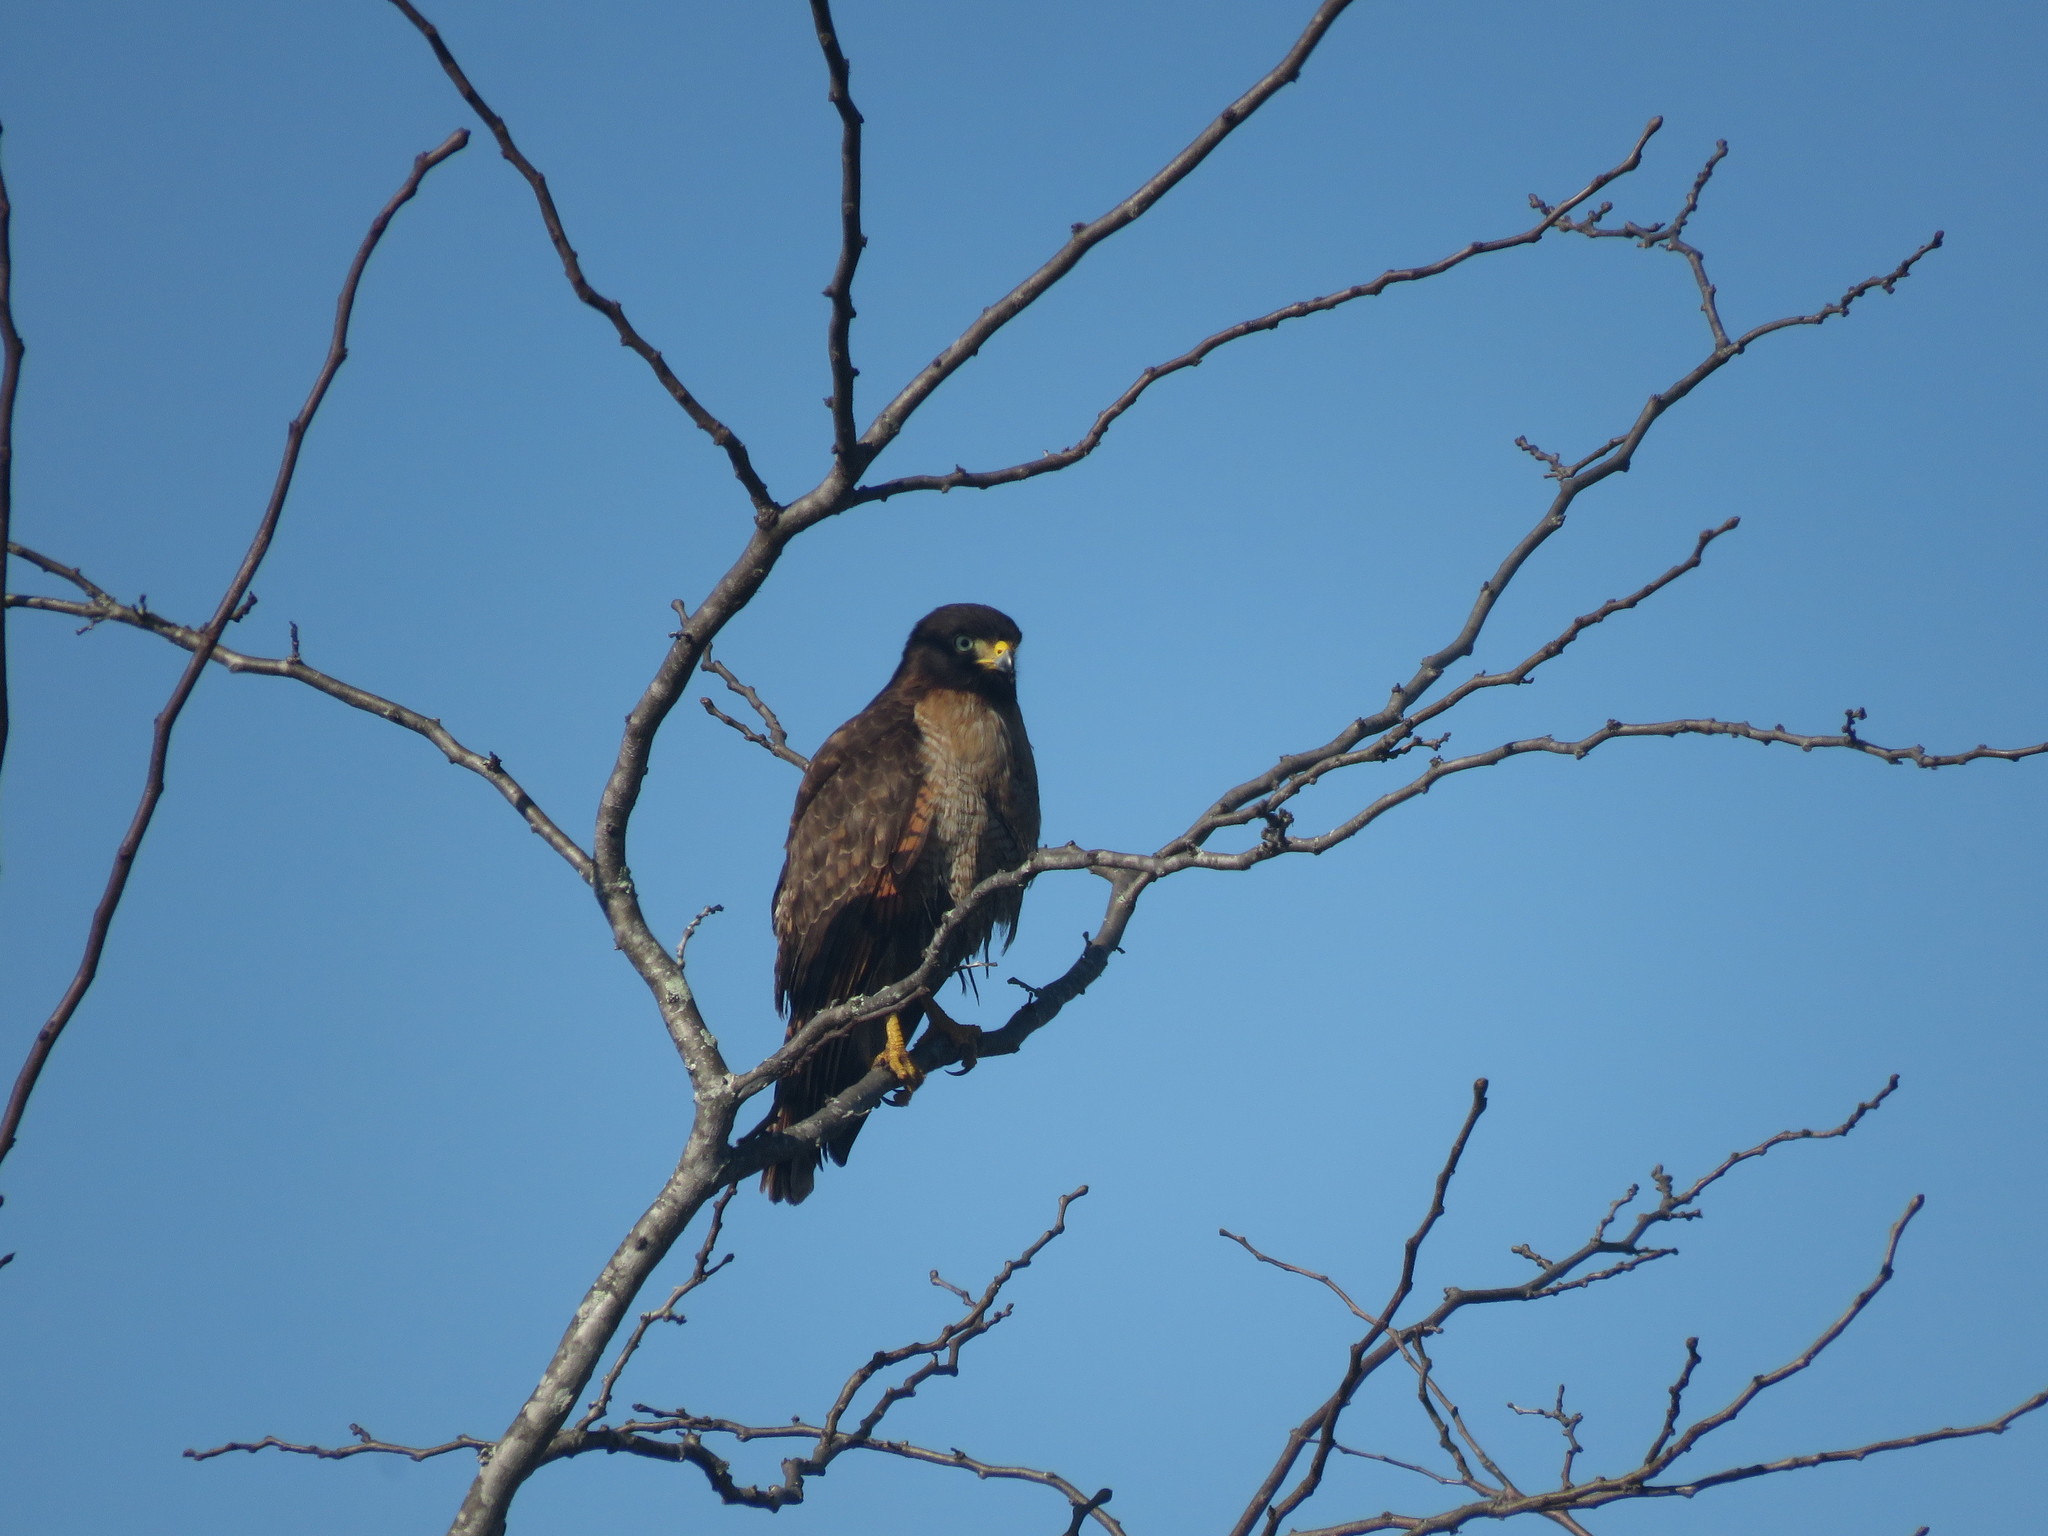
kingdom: Animalia
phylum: Chordata
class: Aves
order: Accipitriformes
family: Accipitridae
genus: Rupornis
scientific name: Rupornis magnirostris
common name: Roadside hawk
